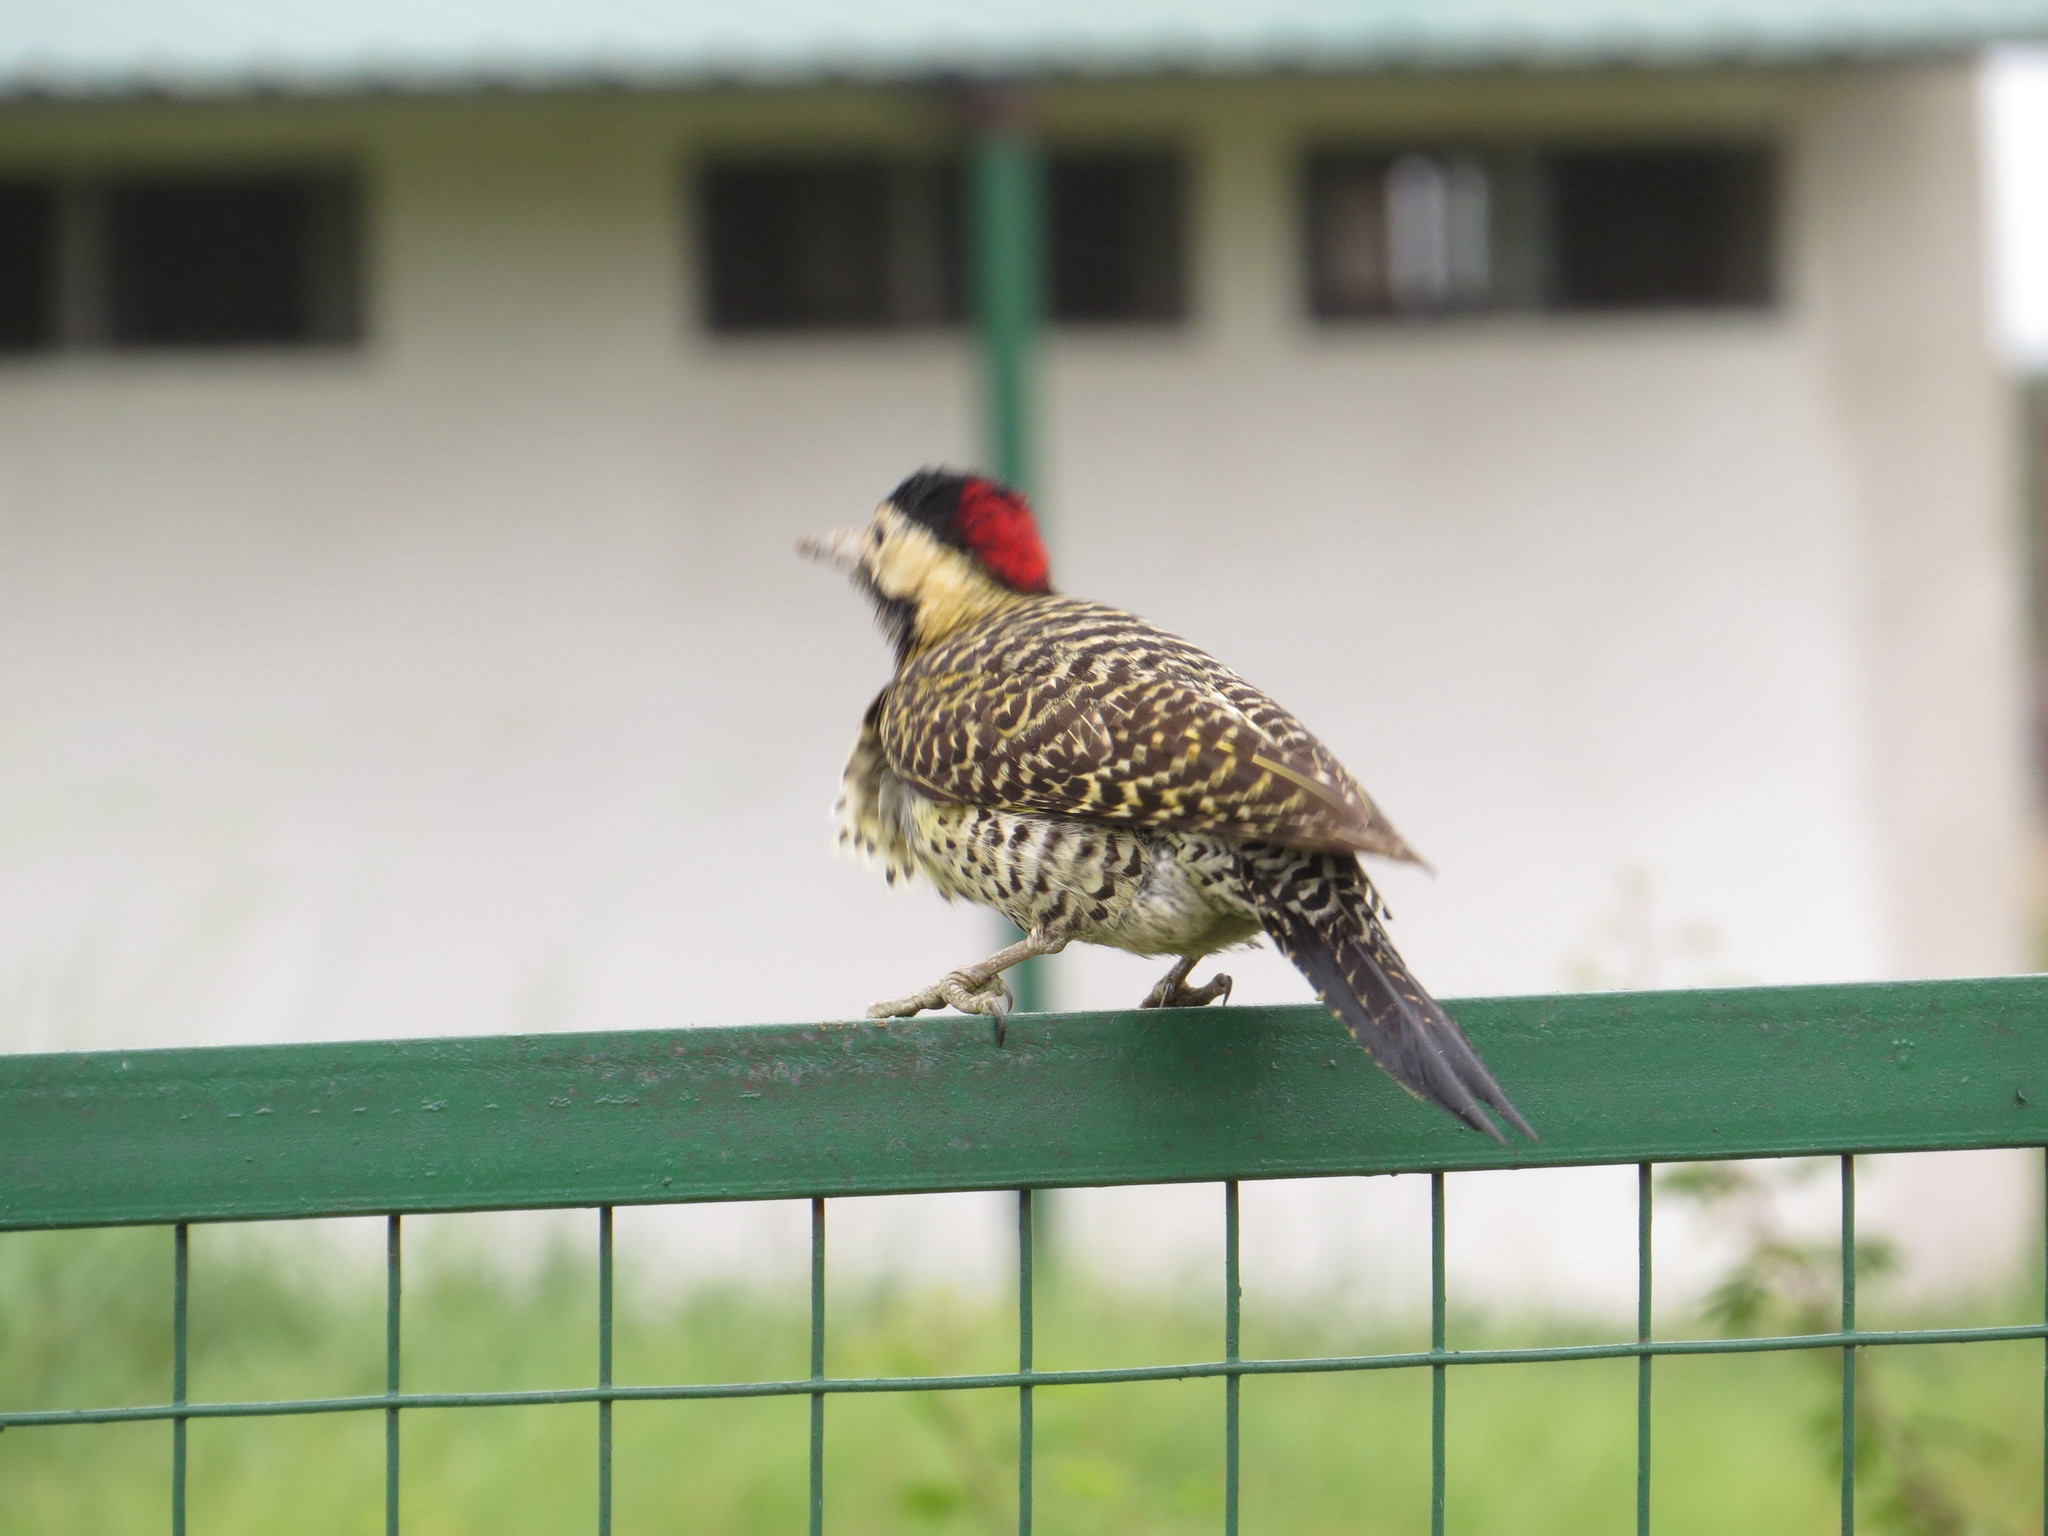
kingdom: Animalia
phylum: Chordata
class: Aves
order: Piciformes
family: Picidae
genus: Colaptes
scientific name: Colaptes melanochloros
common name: Green-barred woodpecker
